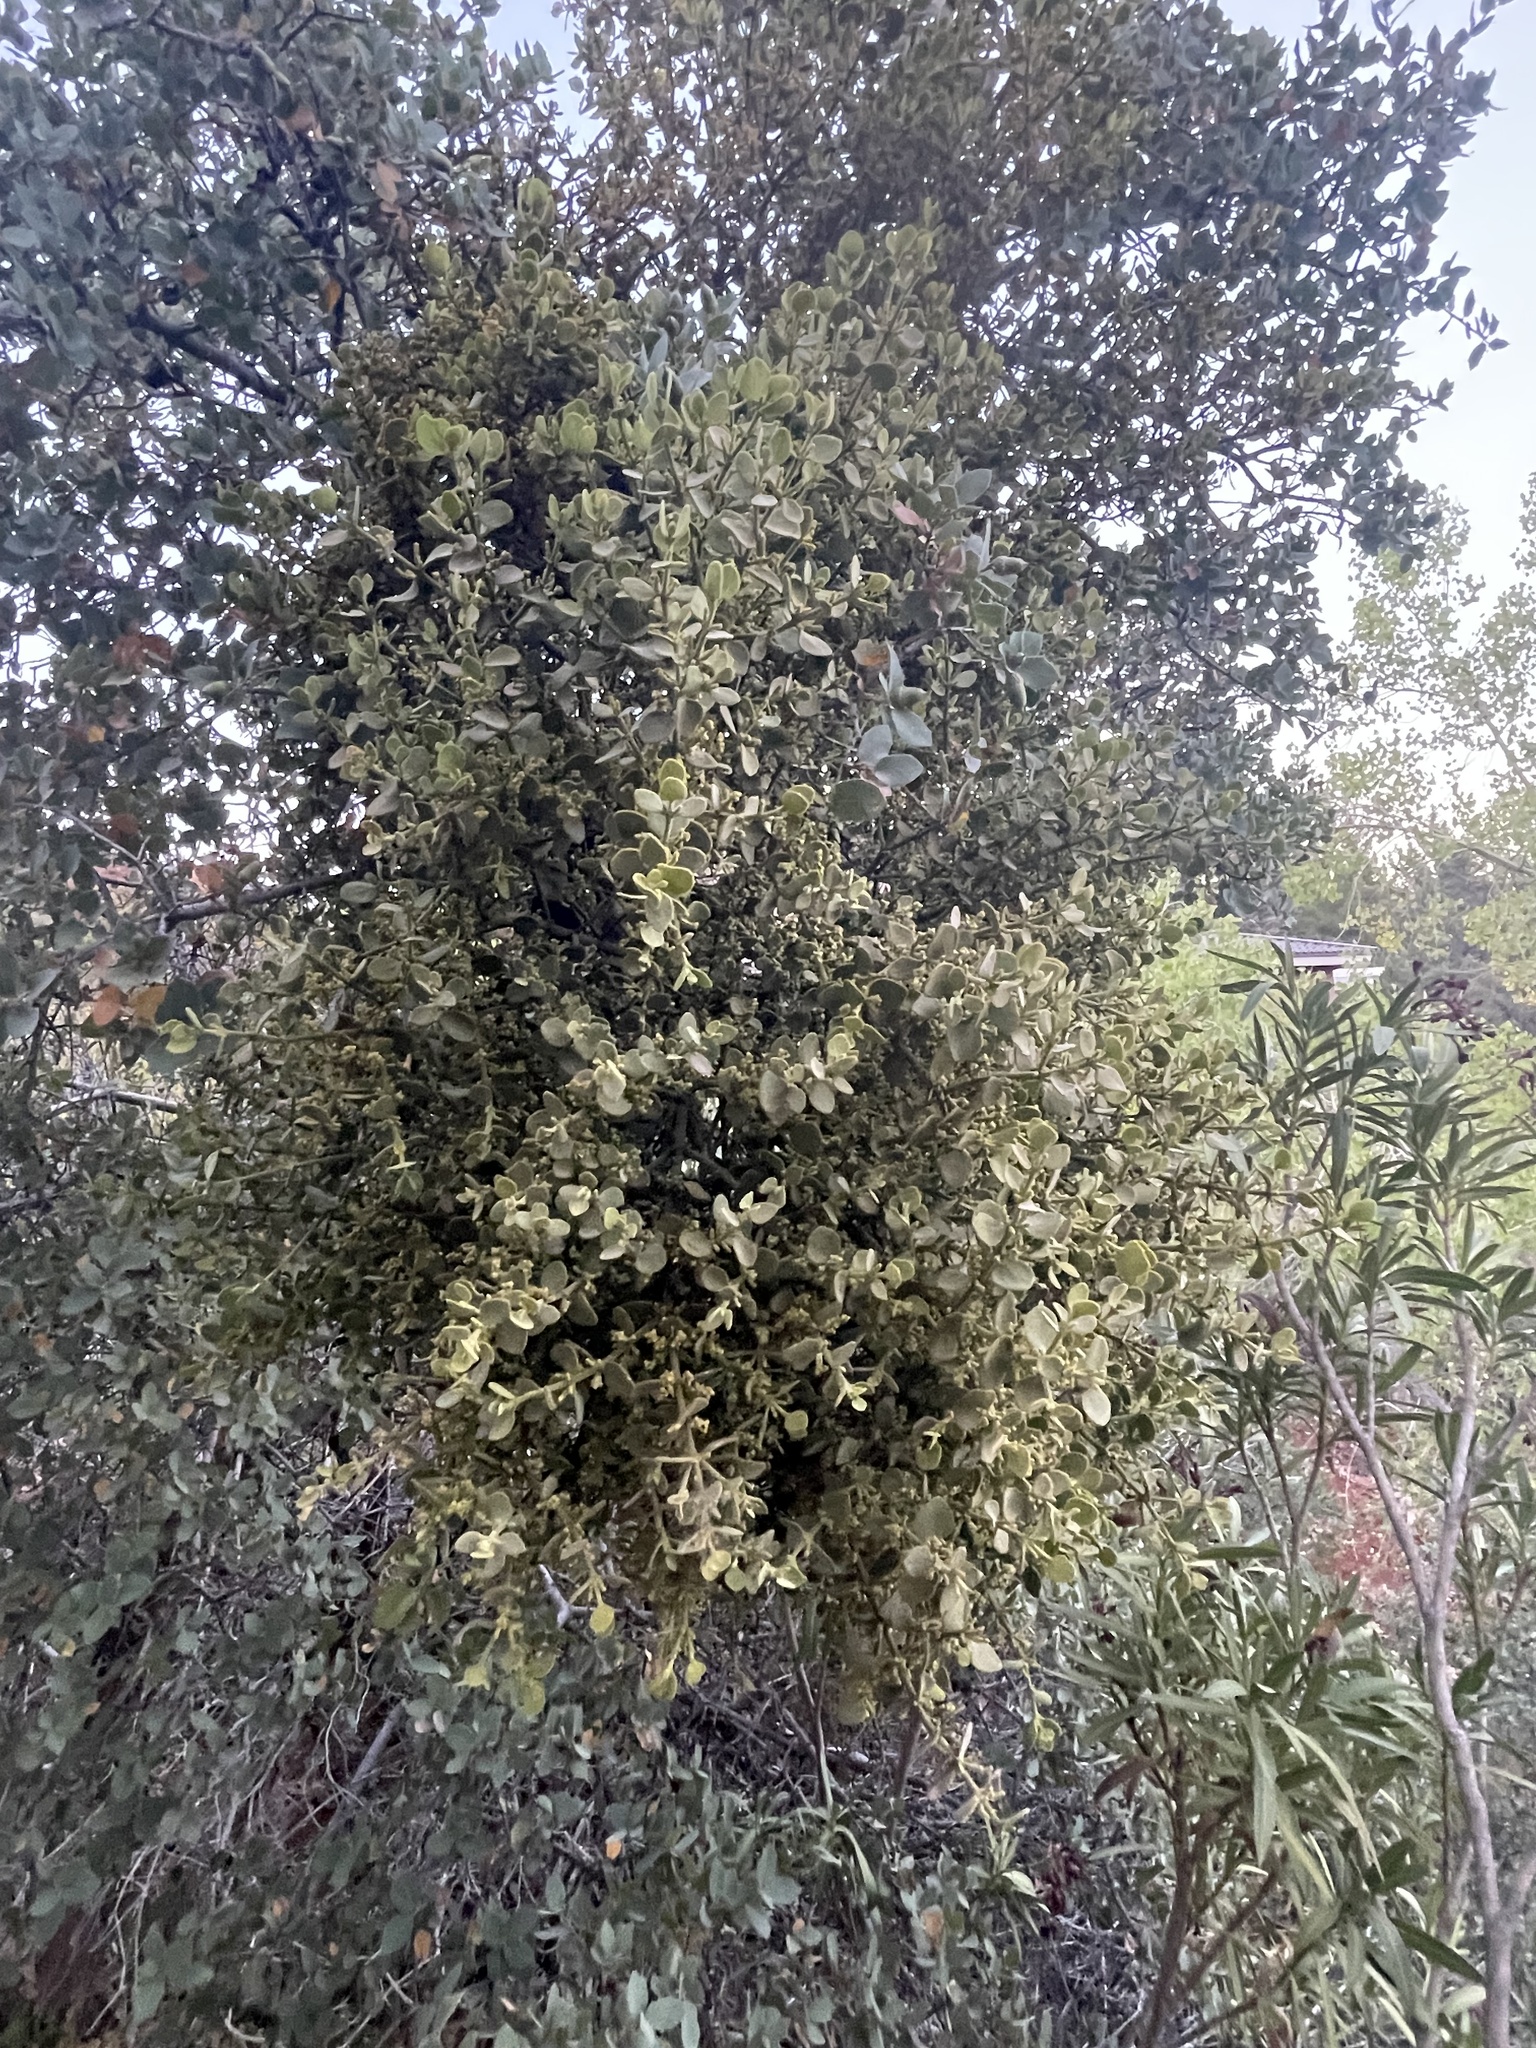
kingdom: Plantae
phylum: Tracheophyta
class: Magnoliopsida
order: Santalales
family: Viscaceae
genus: Phoradendron
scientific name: Phoradendron coryae
